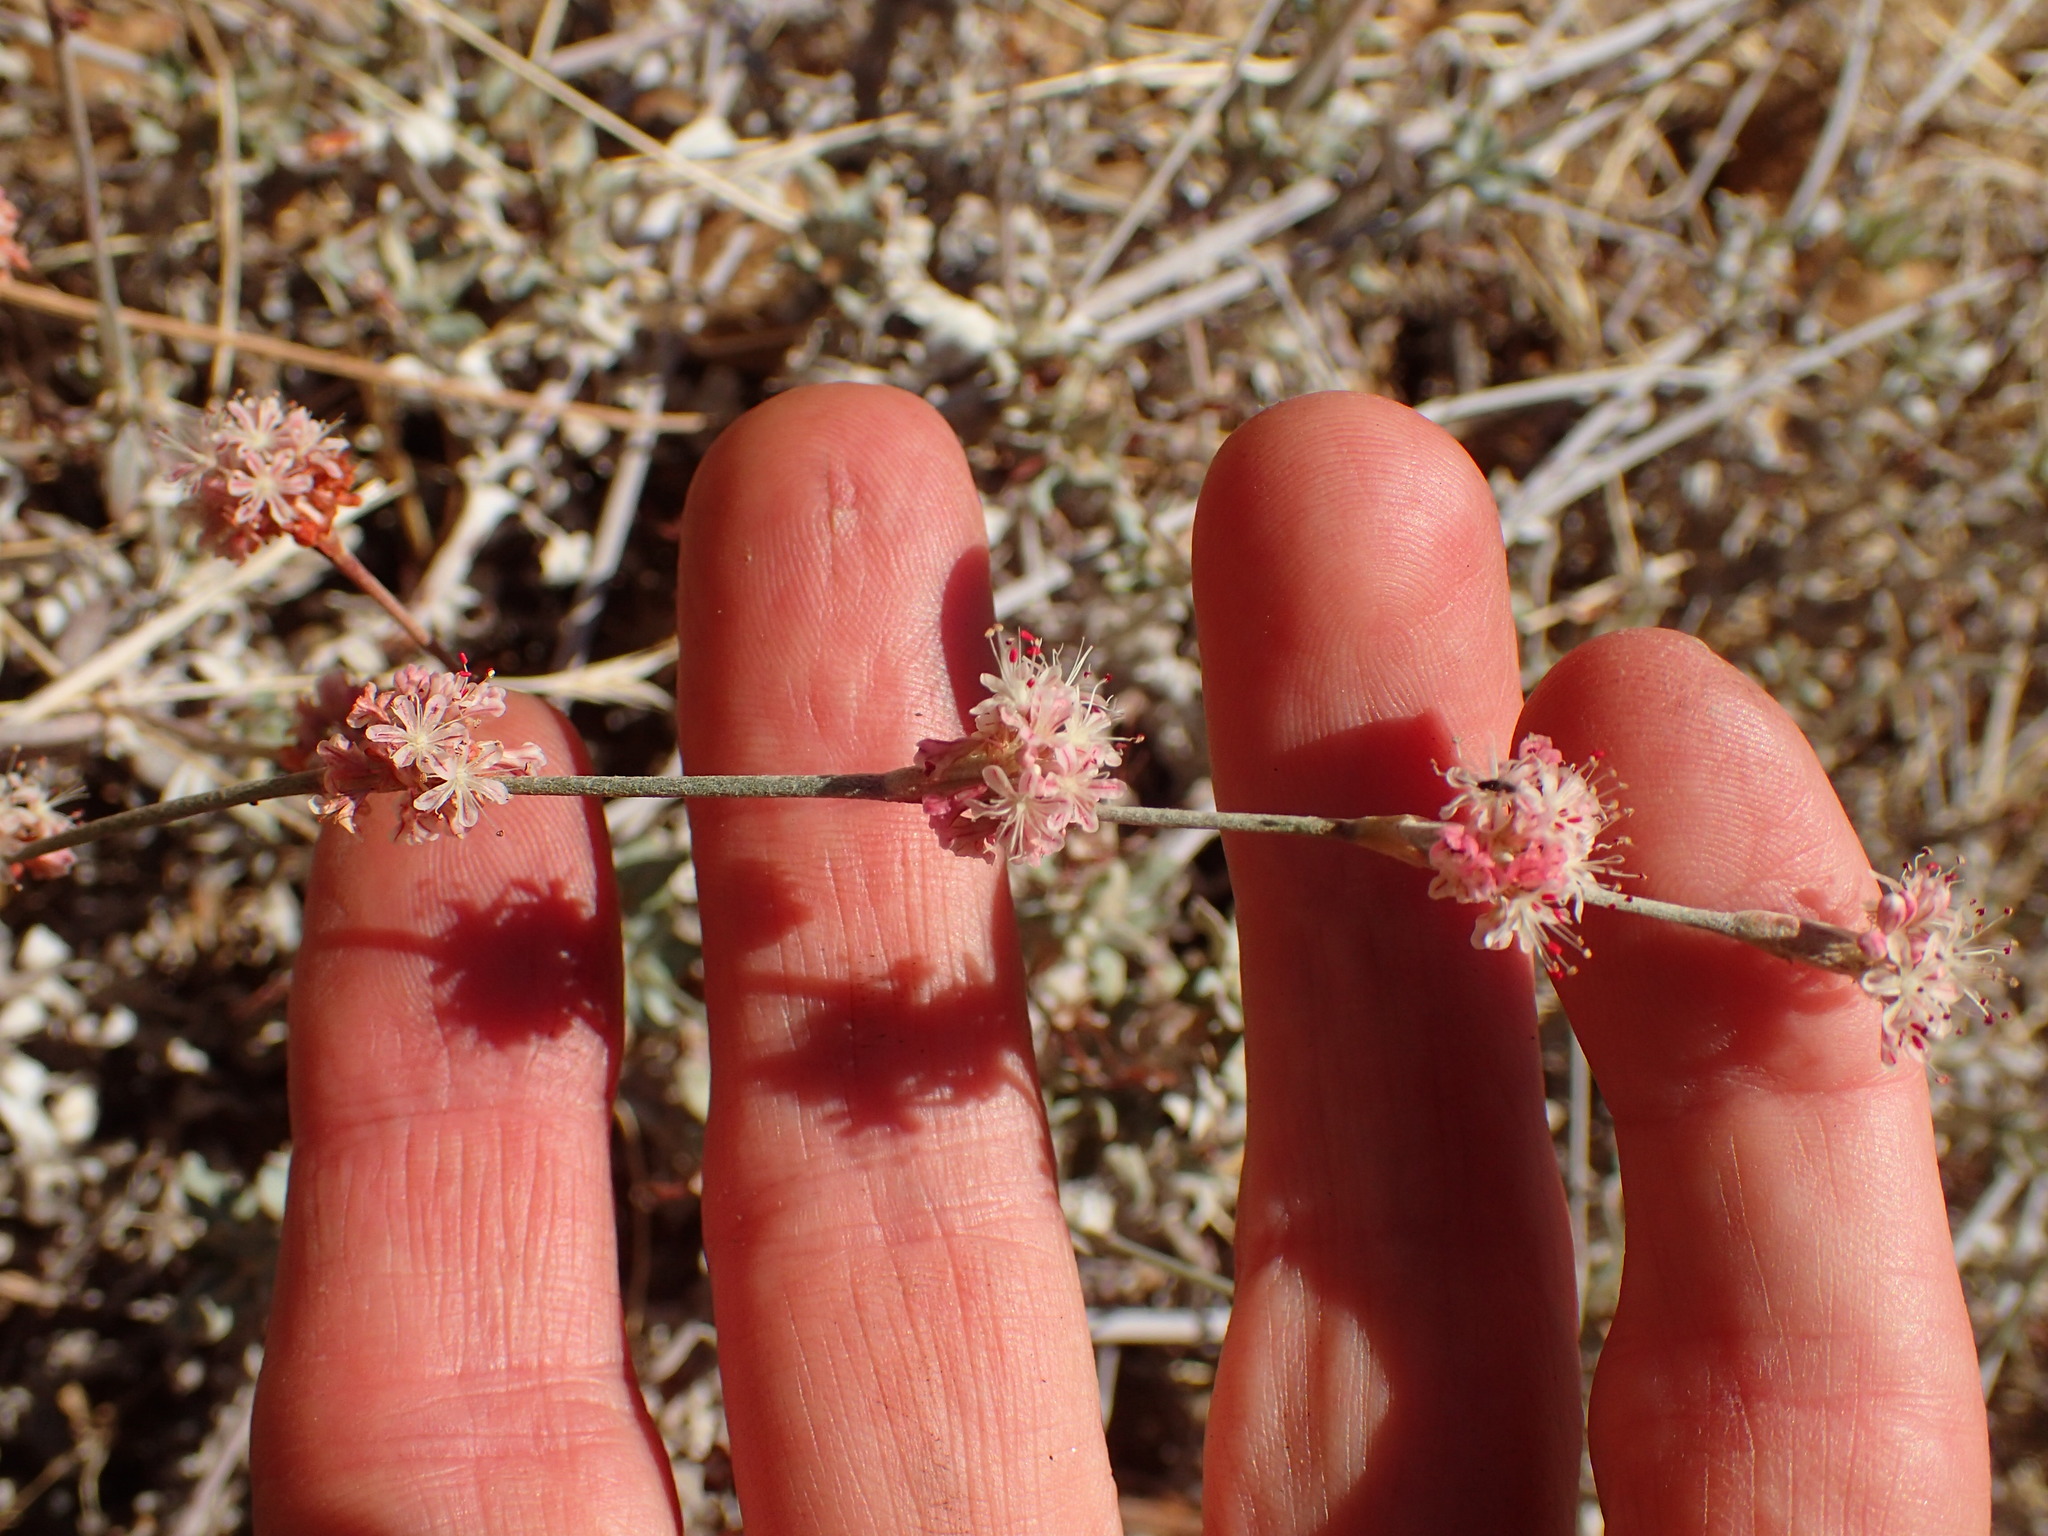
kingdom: Plantae
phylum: Tracheophyta
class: Magnoliopsida
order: Caryophyllales
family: Polygonaceae
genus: Eriogonum
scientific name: Eriogonum elongatum
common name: Long-stem wild buckwheat
